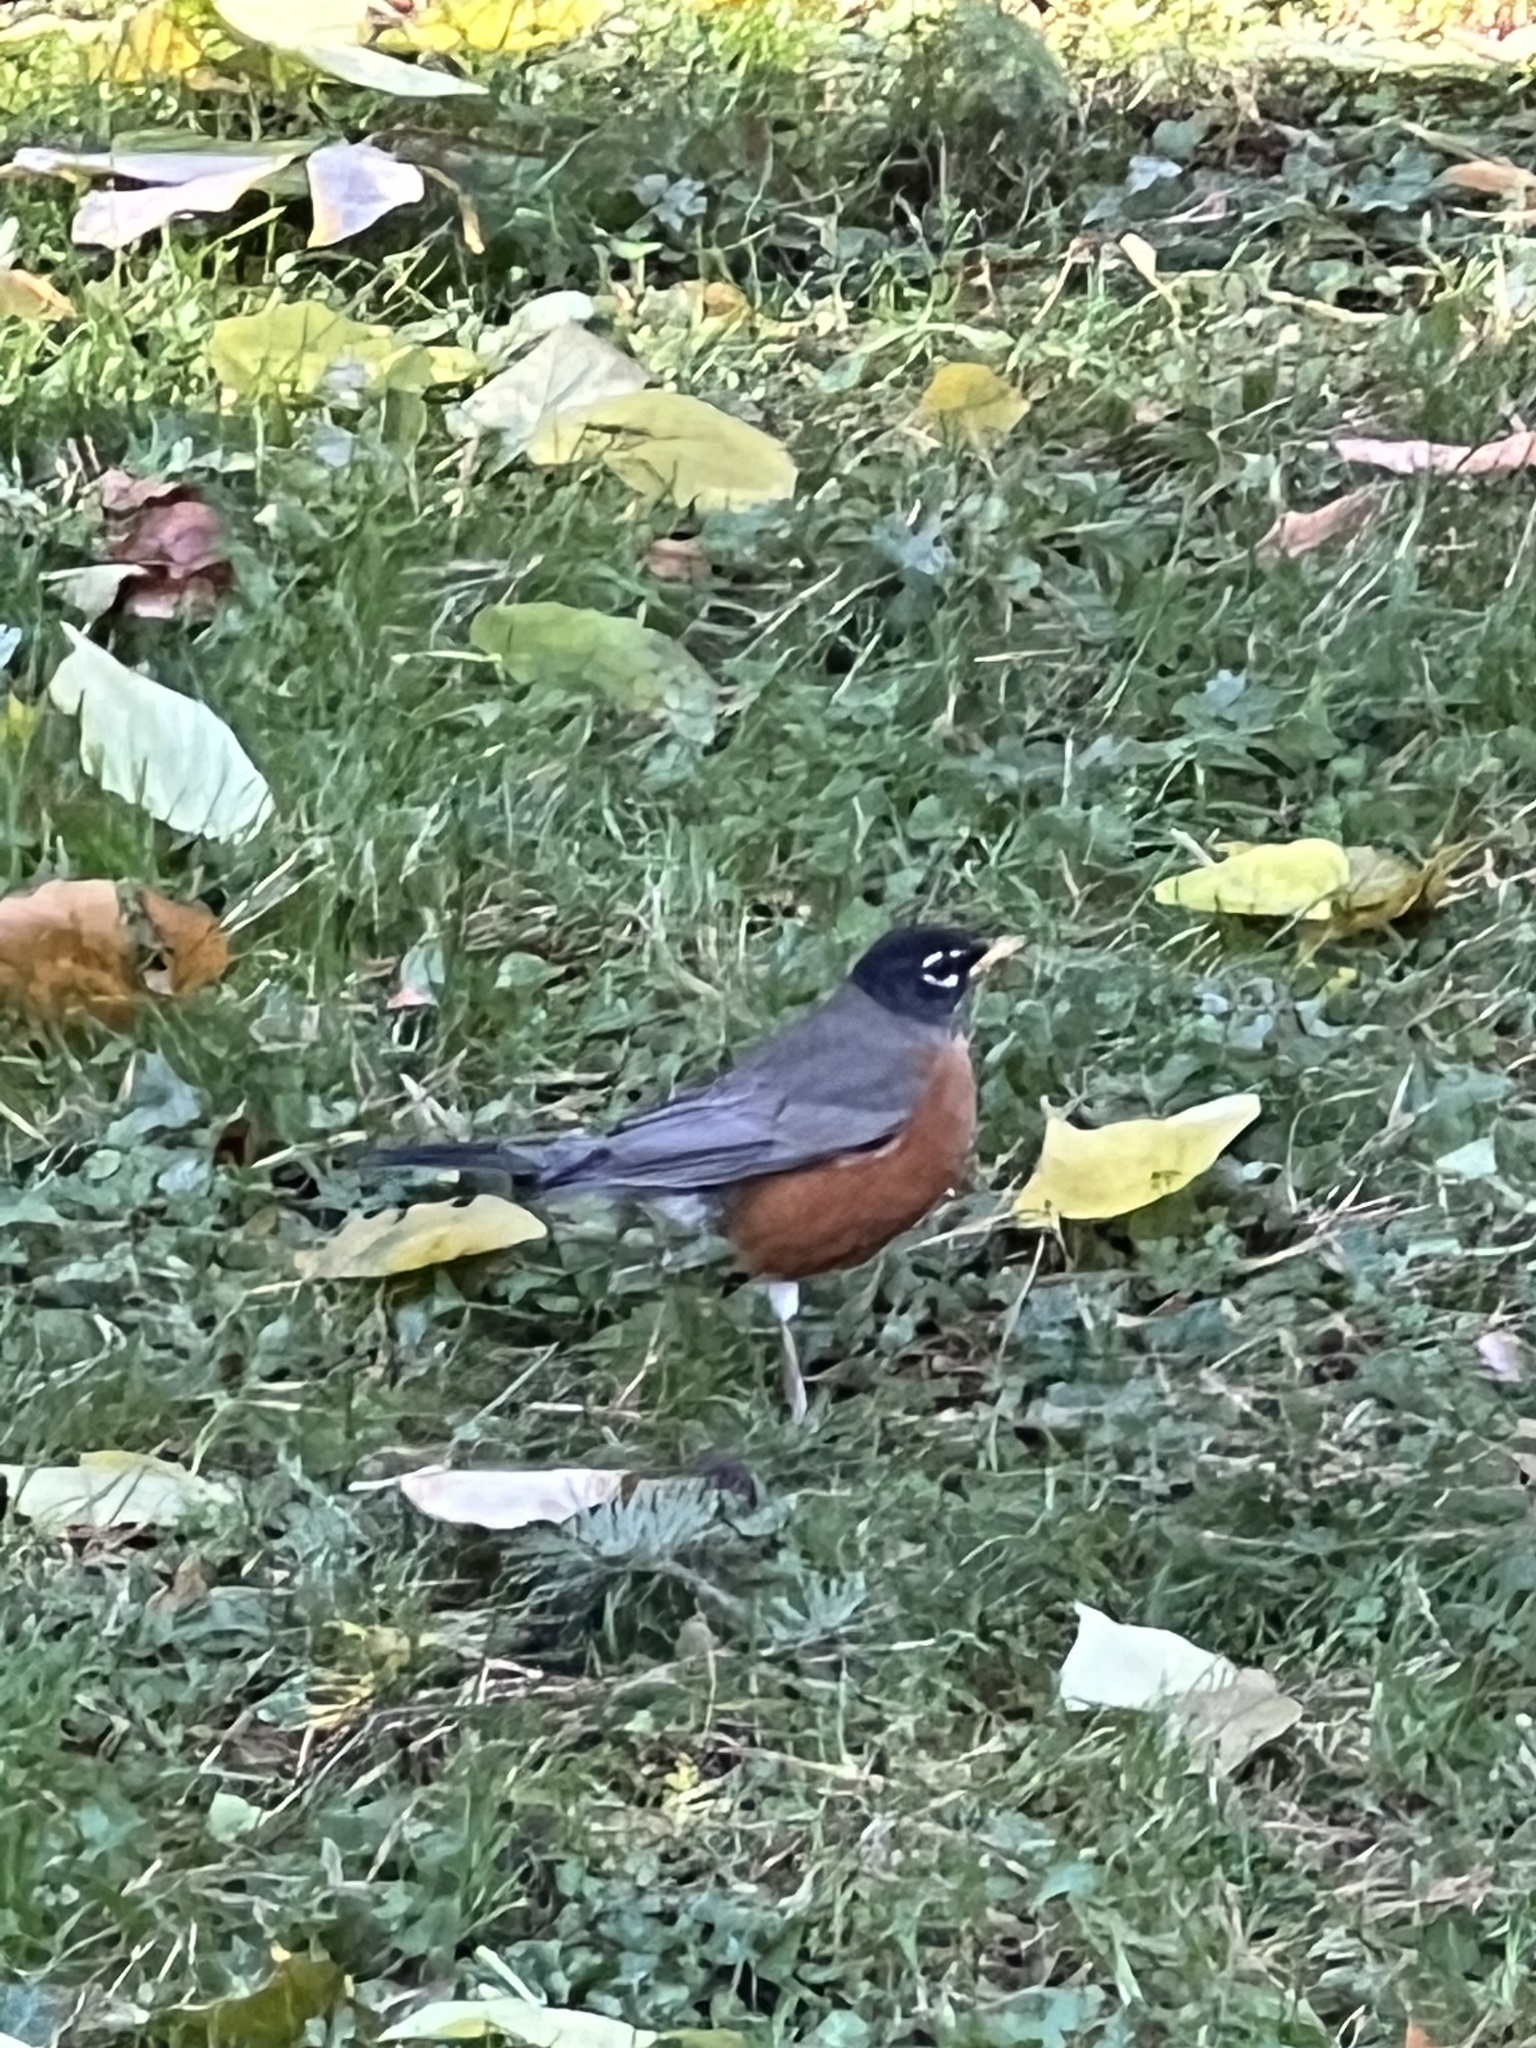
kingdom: Animalia
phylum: Chordata
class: Aves
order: Passeriformes
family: Turdidae
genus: Turdus
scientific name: Turdus migratorius
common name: American robin
